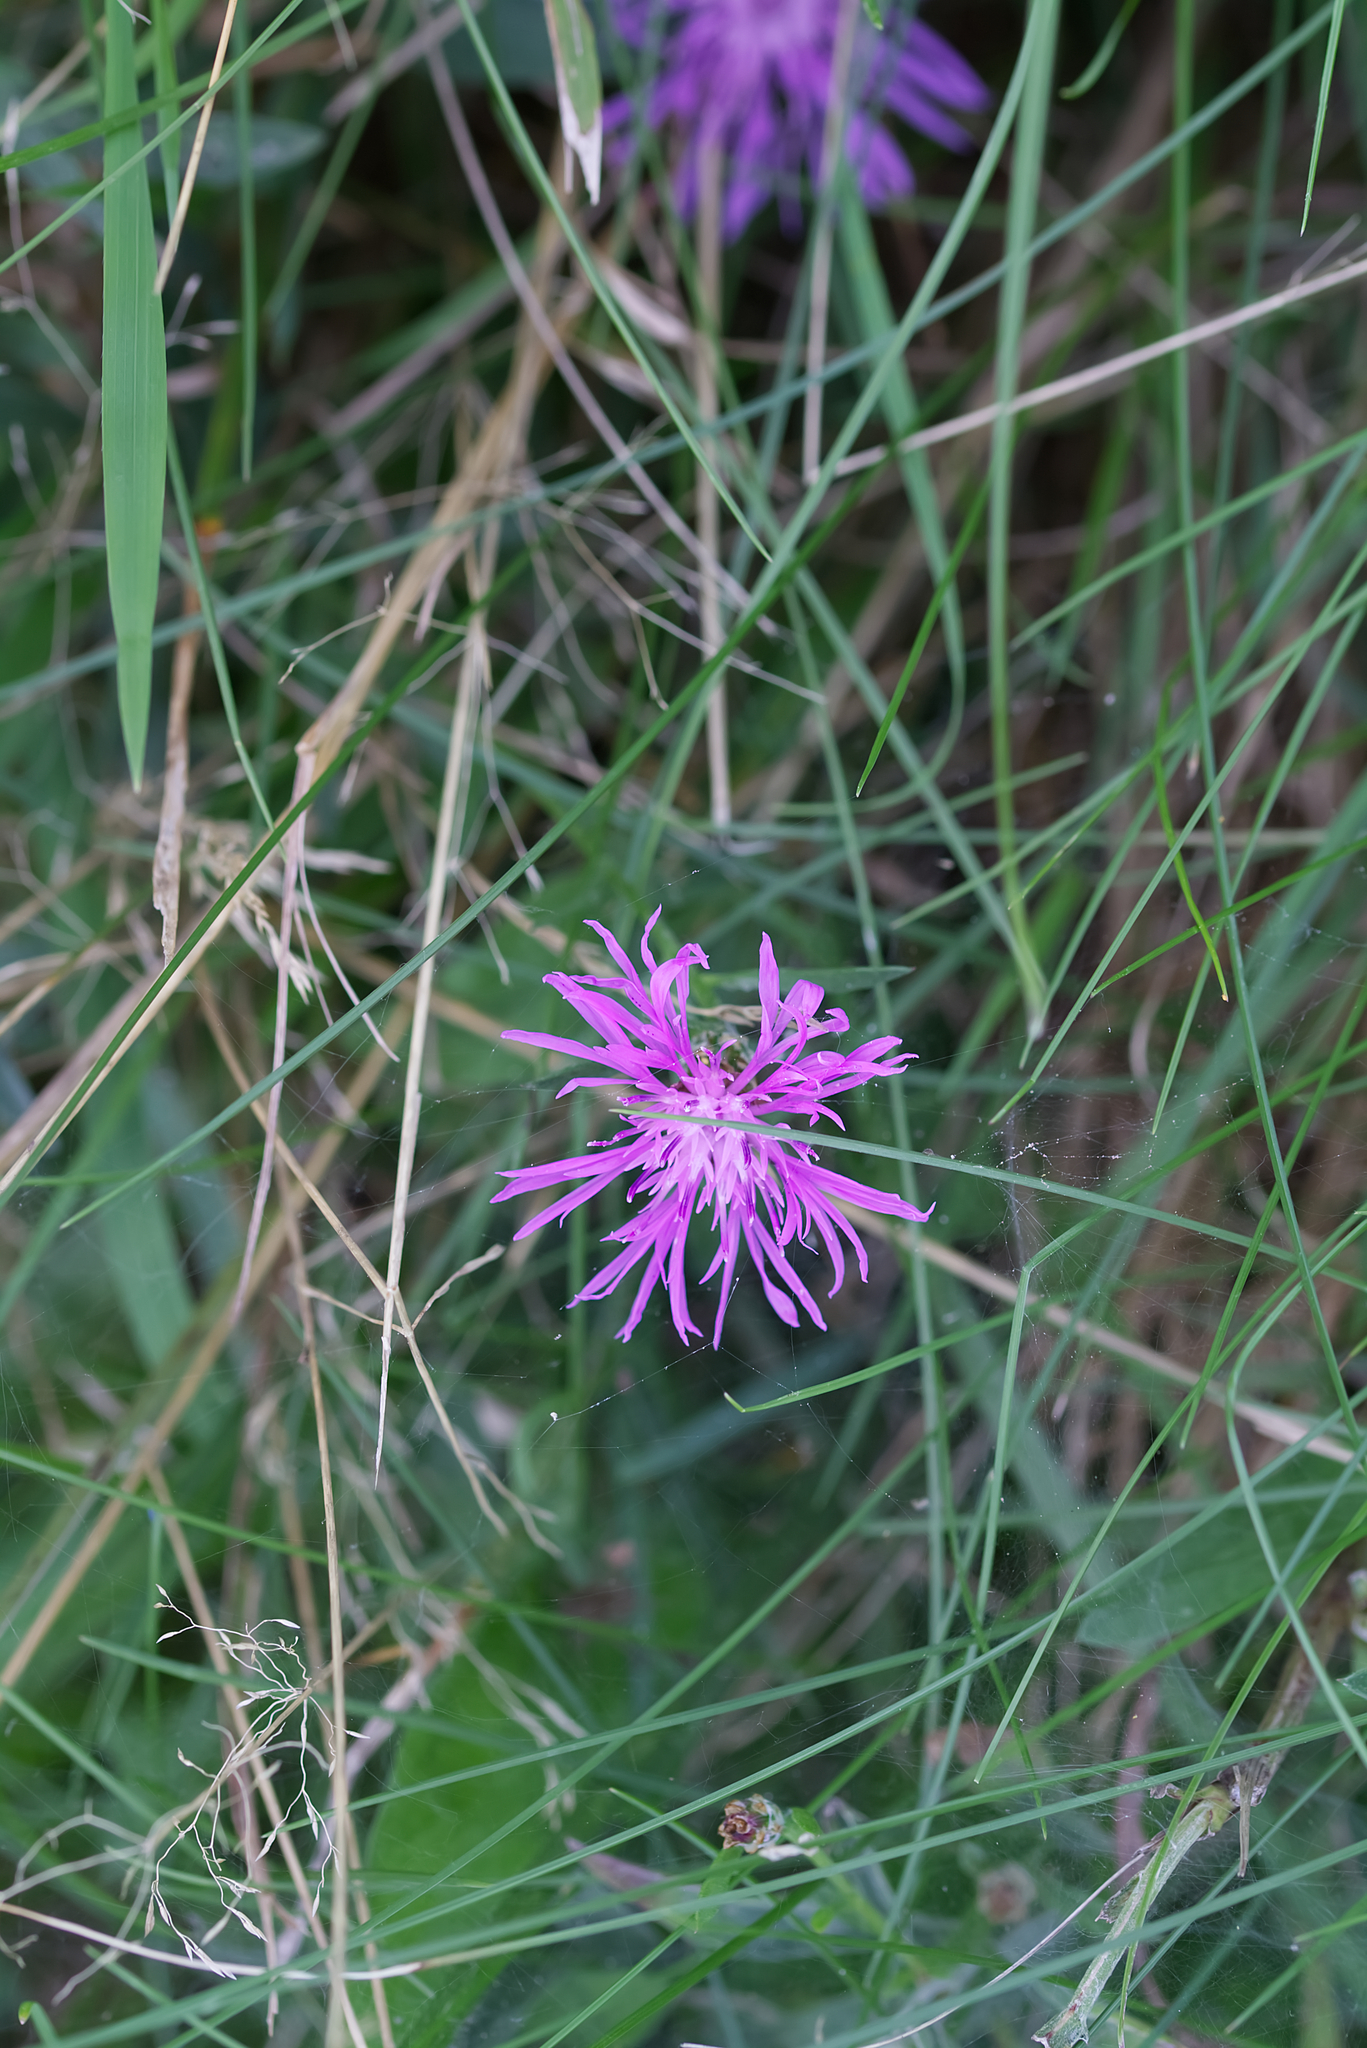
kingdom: Plantae
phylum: Tracheophyta
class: Magnoliopsida
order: Asterales
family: Asteraceae
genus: Centaurea
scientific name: Centaurea jacea
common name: Brown knapweed
